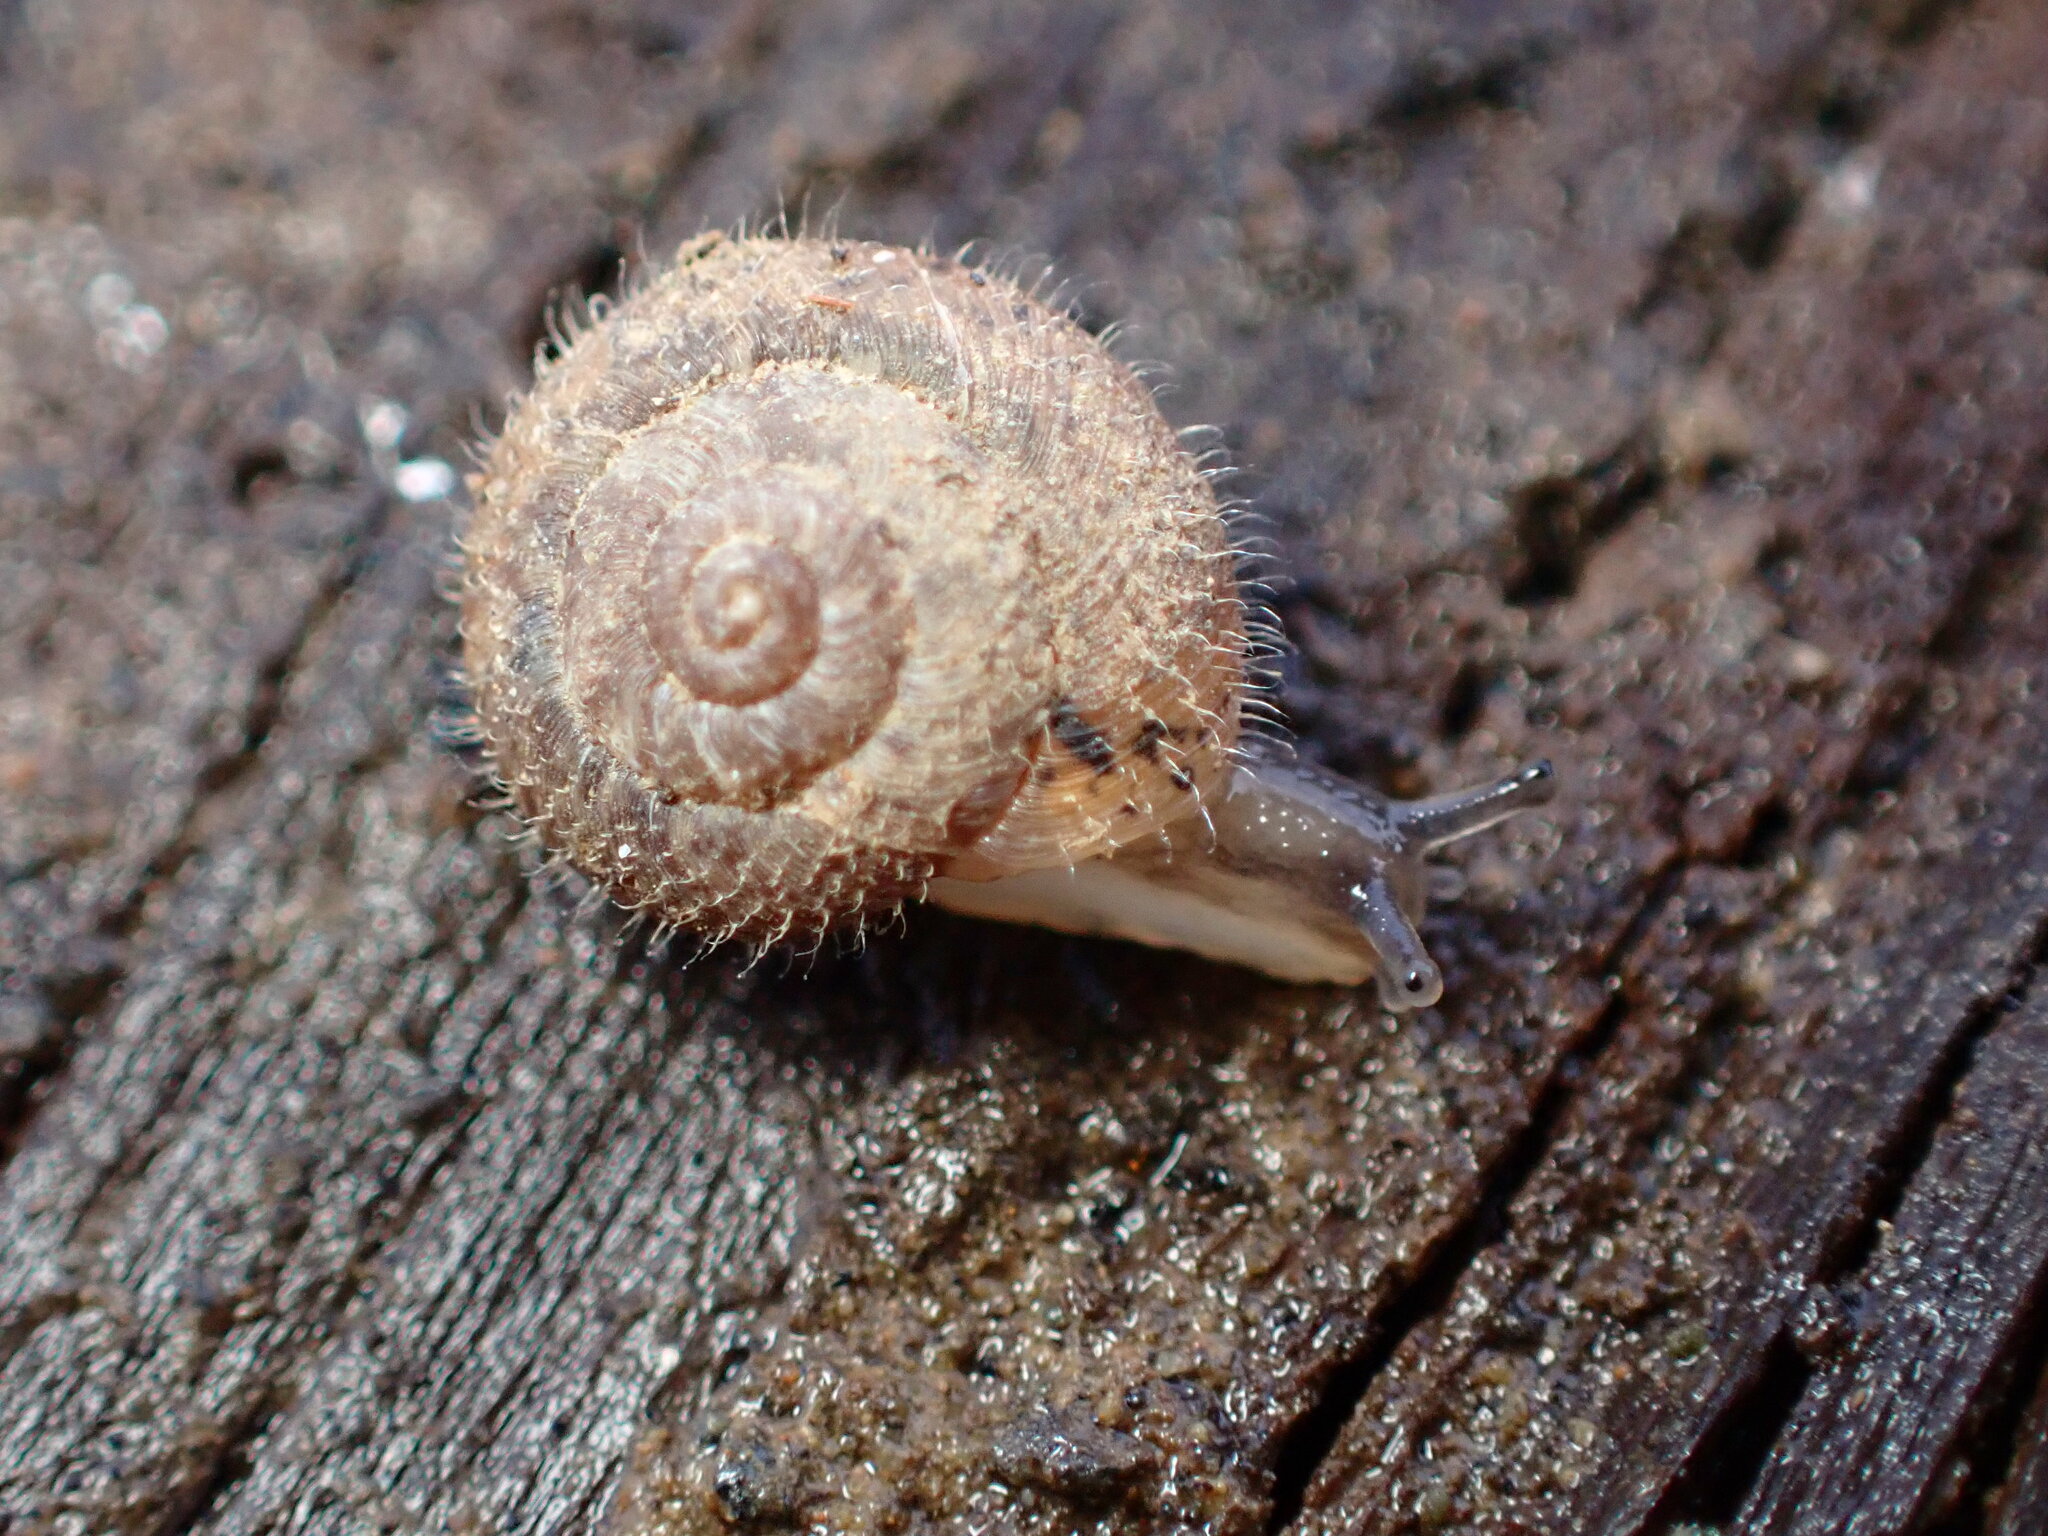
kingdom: Animalia
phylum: Mollusca
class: Gastropoda
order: Stylommatophora
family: Geomitridae
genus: Xerotricha
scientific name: Xerotricha conspurcata
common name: Snail
